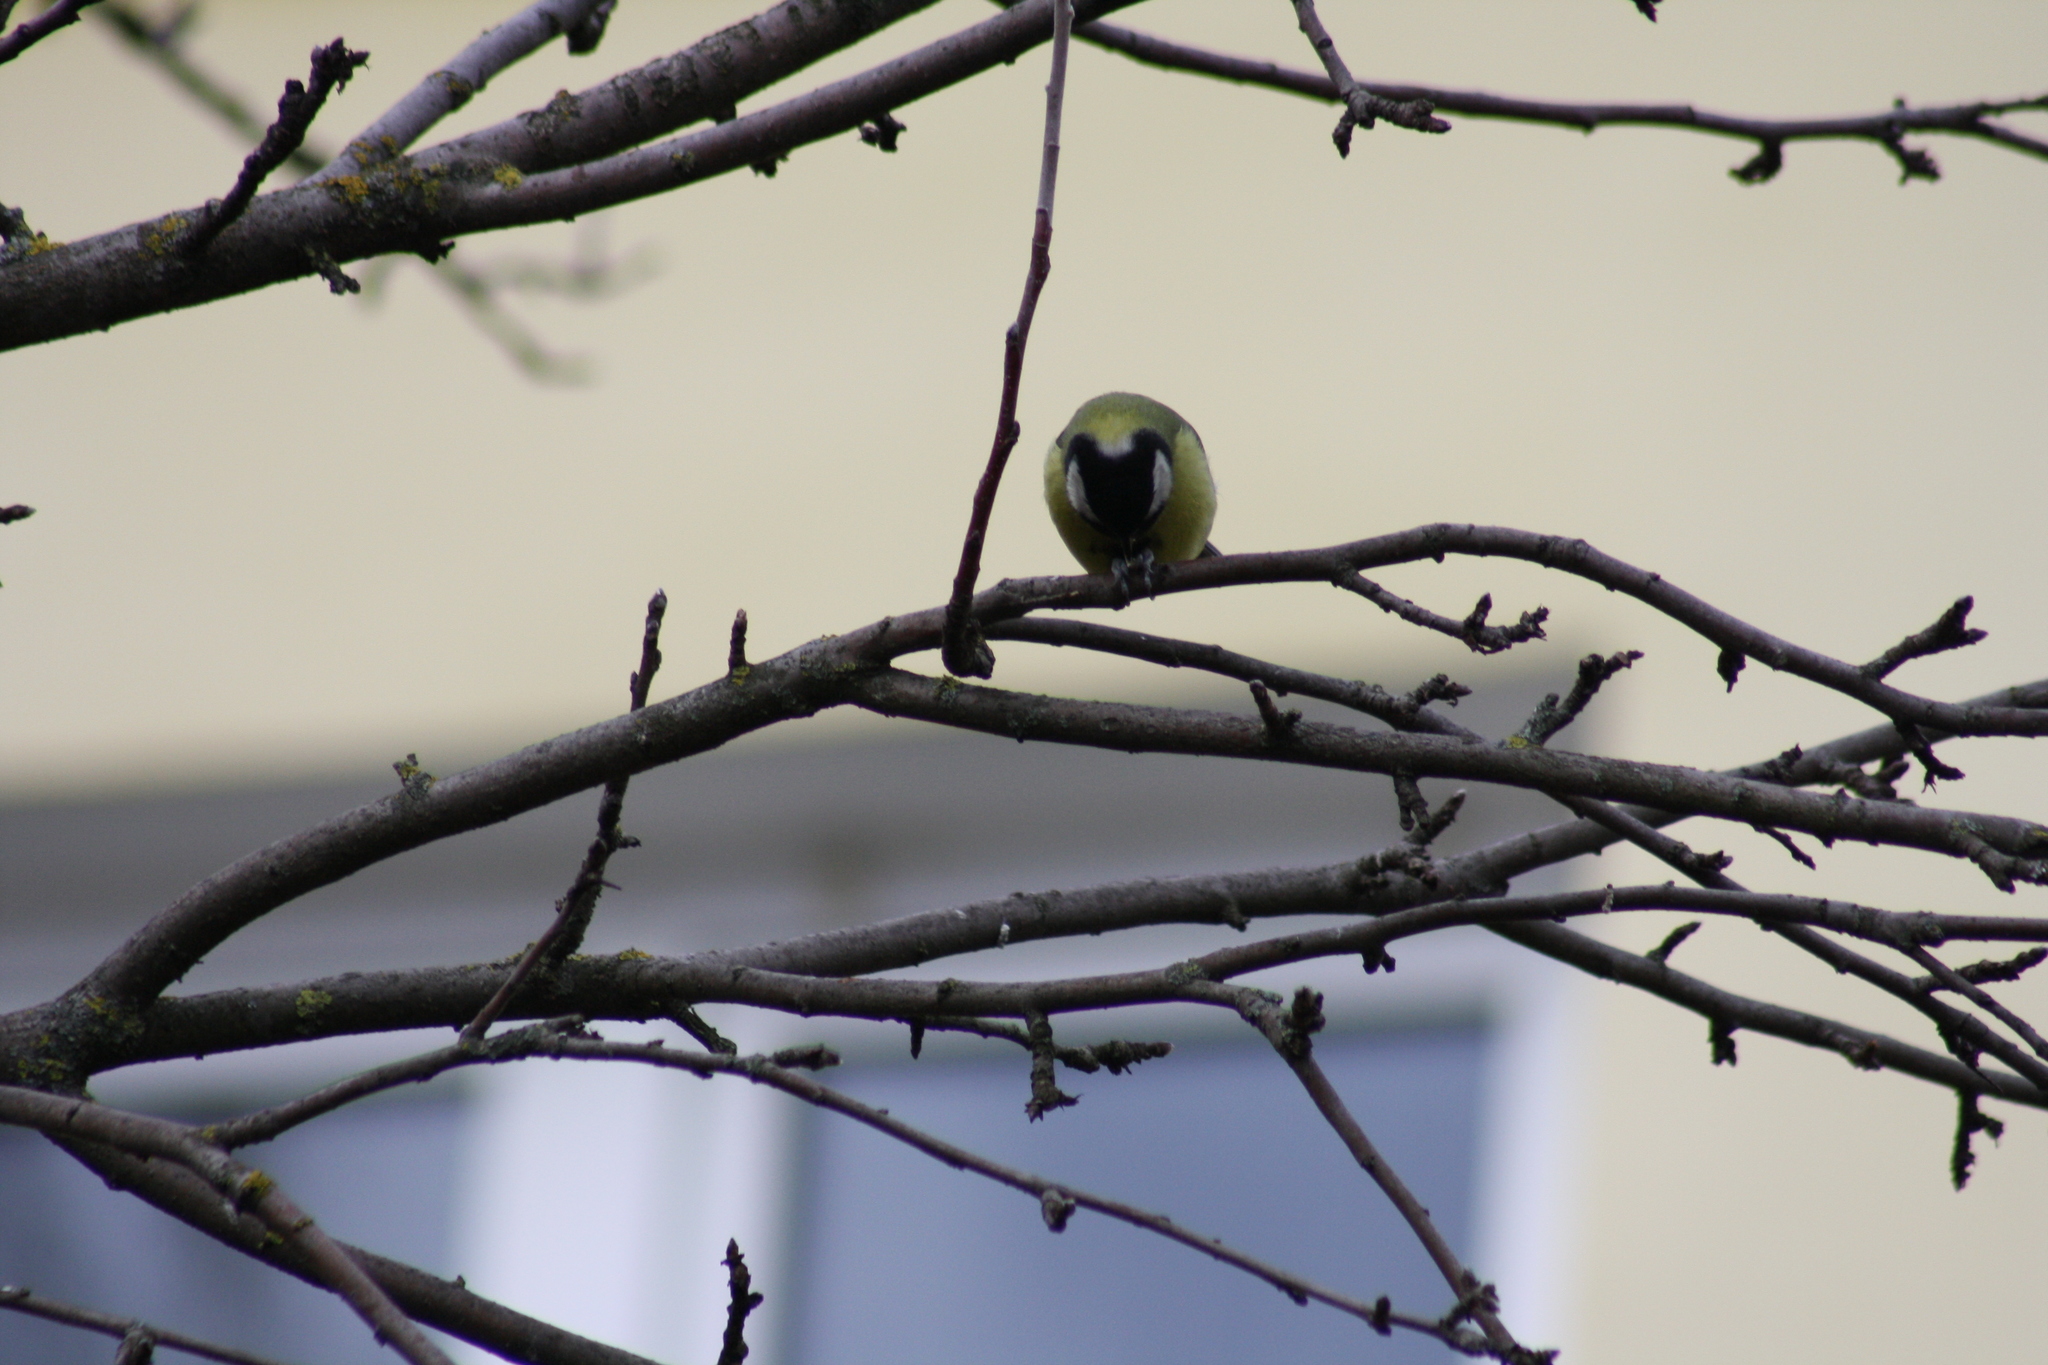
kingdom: Animalia
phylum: Chordata
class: Aves
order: Passeriformes
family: Paridae
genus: Parus
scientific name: Parus major
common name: Great tit
